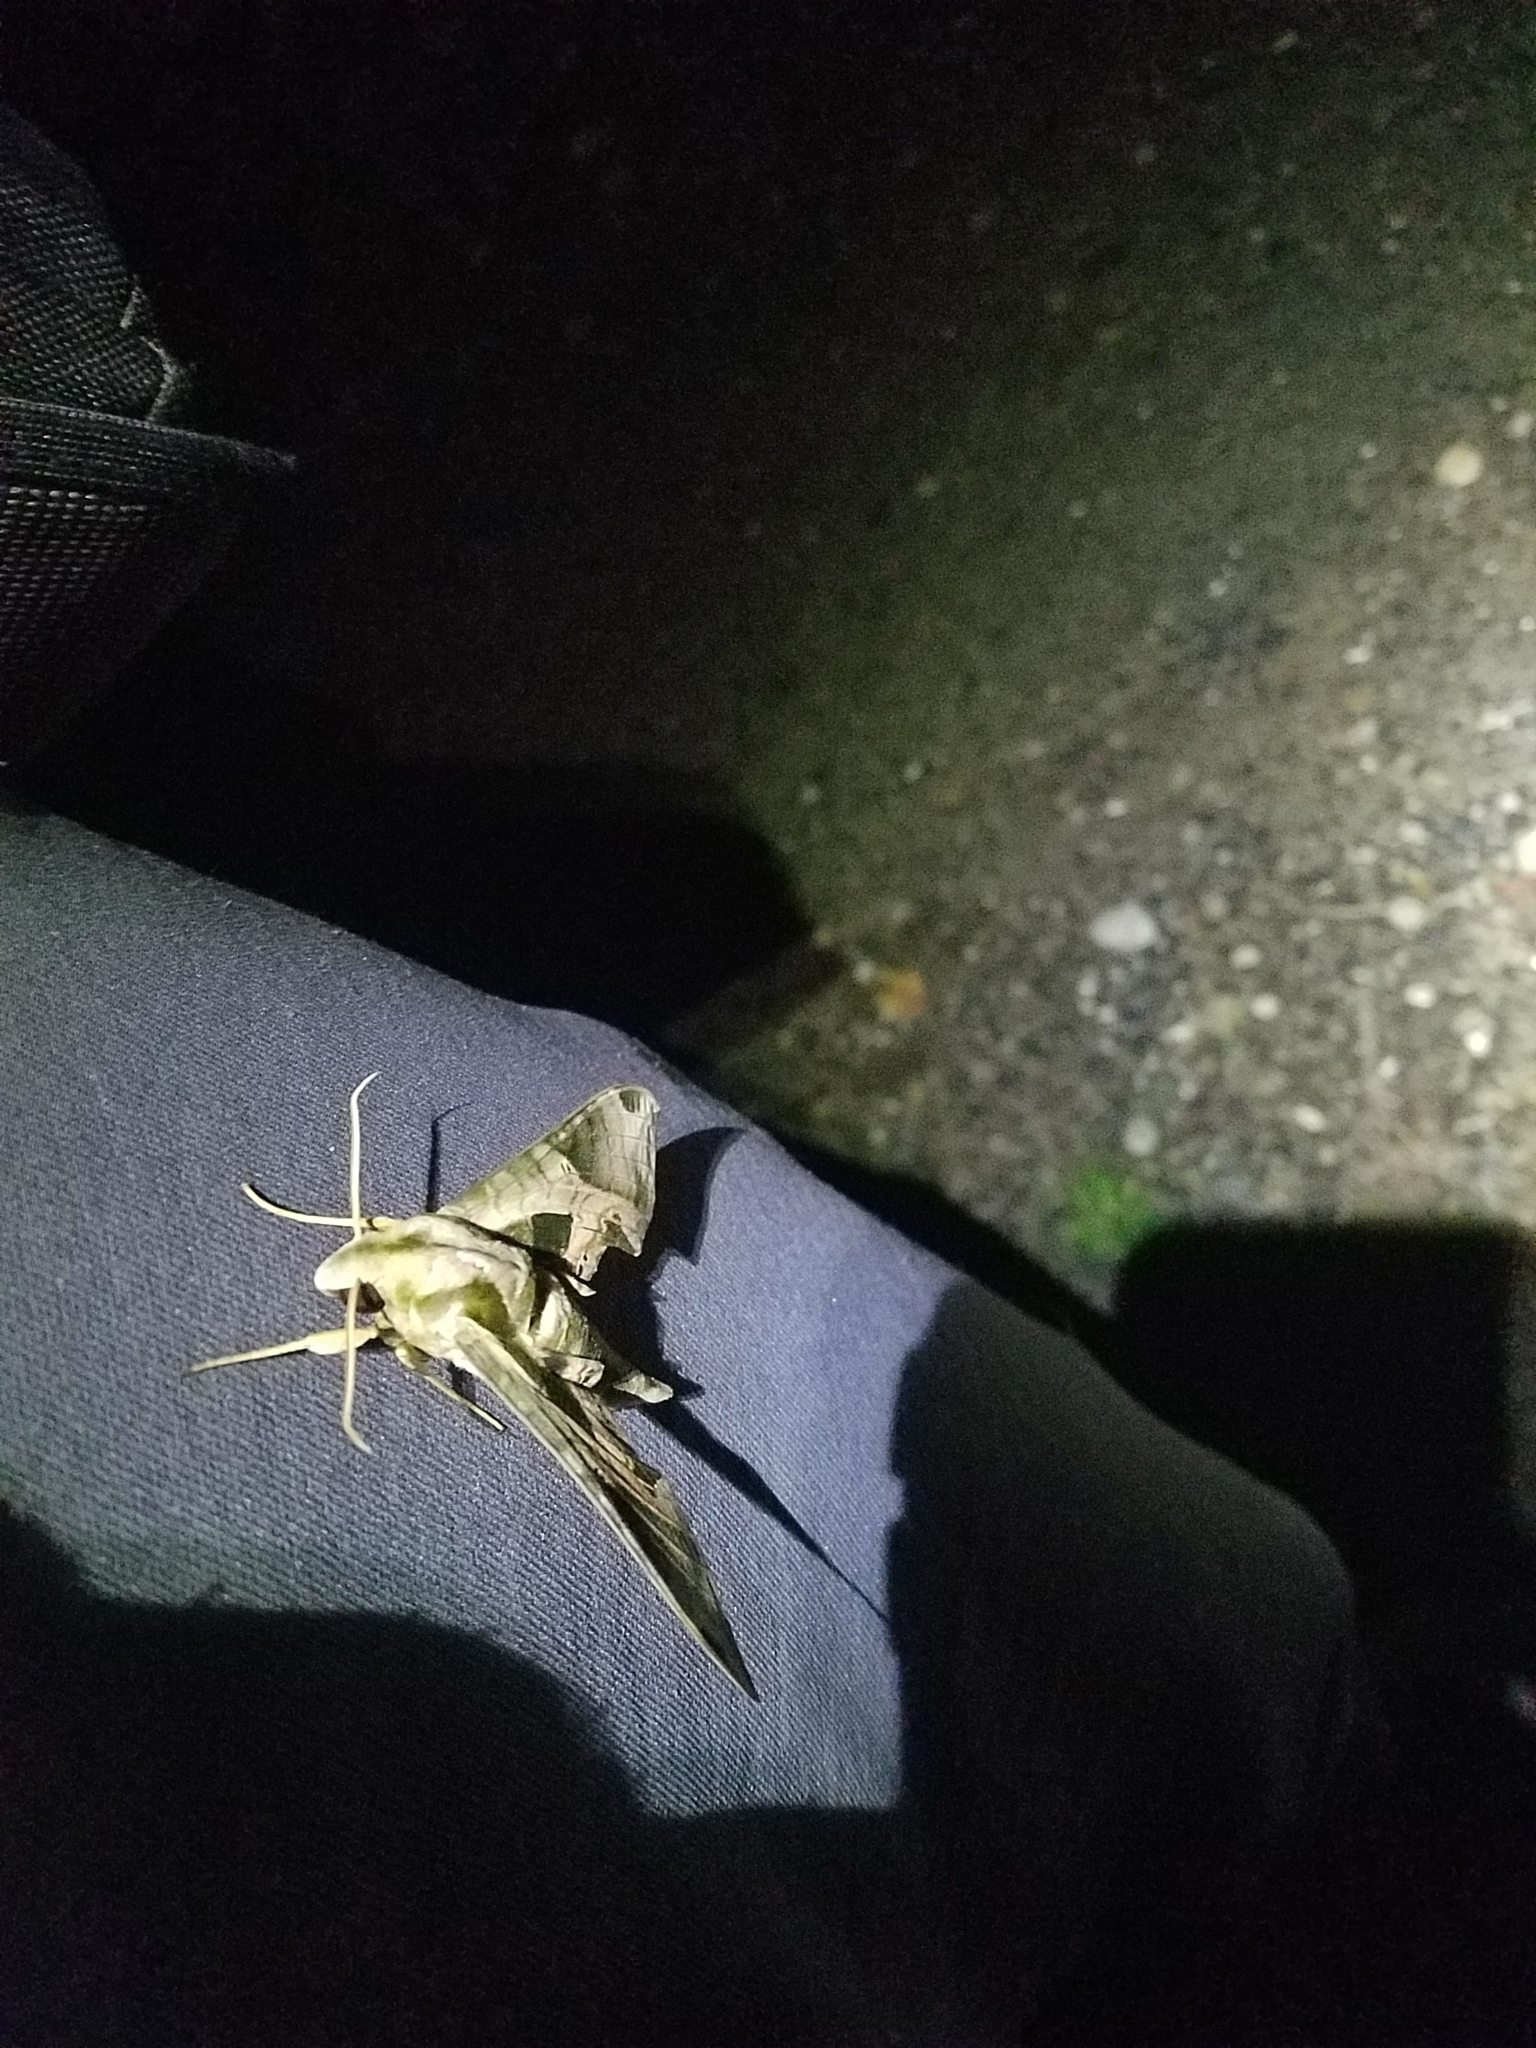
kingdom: Animalia
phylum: Arthropoda
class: Insecta
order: Lepidoptera
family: Sphingidae
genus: Eumorpha
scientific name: Eumorpha pandorus
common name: Pandora sphinx
